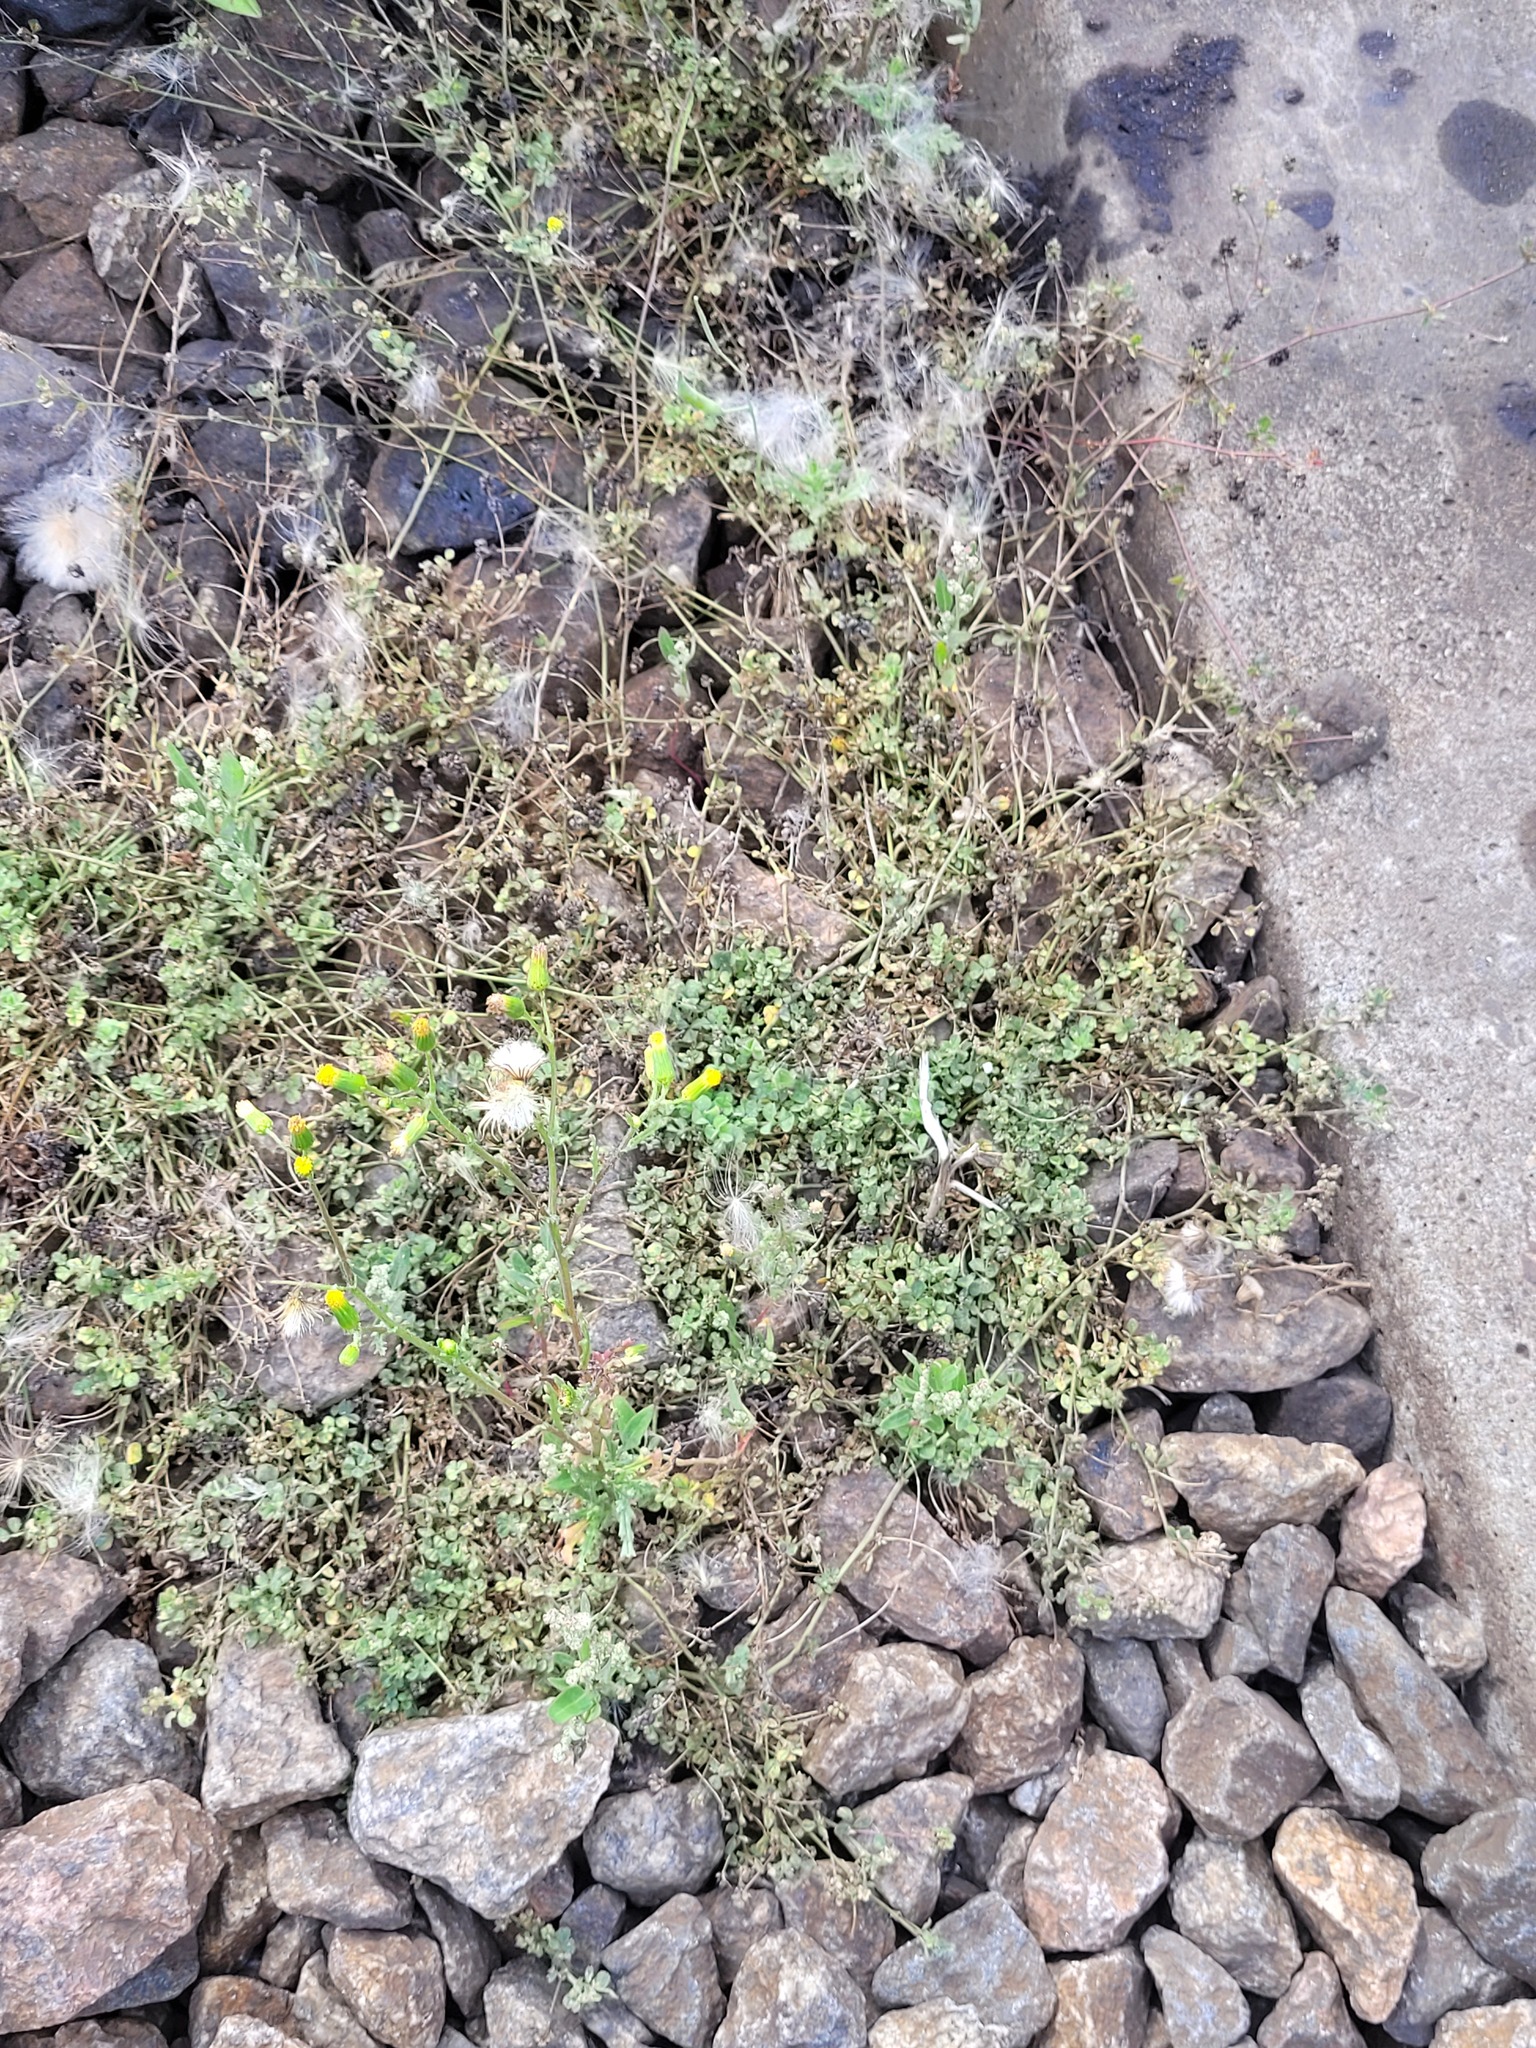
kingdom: Plantae
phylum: Tracheophyta
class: Magnoliopsida
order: Fabales
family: Fabaceae
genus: Medicago
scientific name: Medicago lupulina
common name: Black medick
